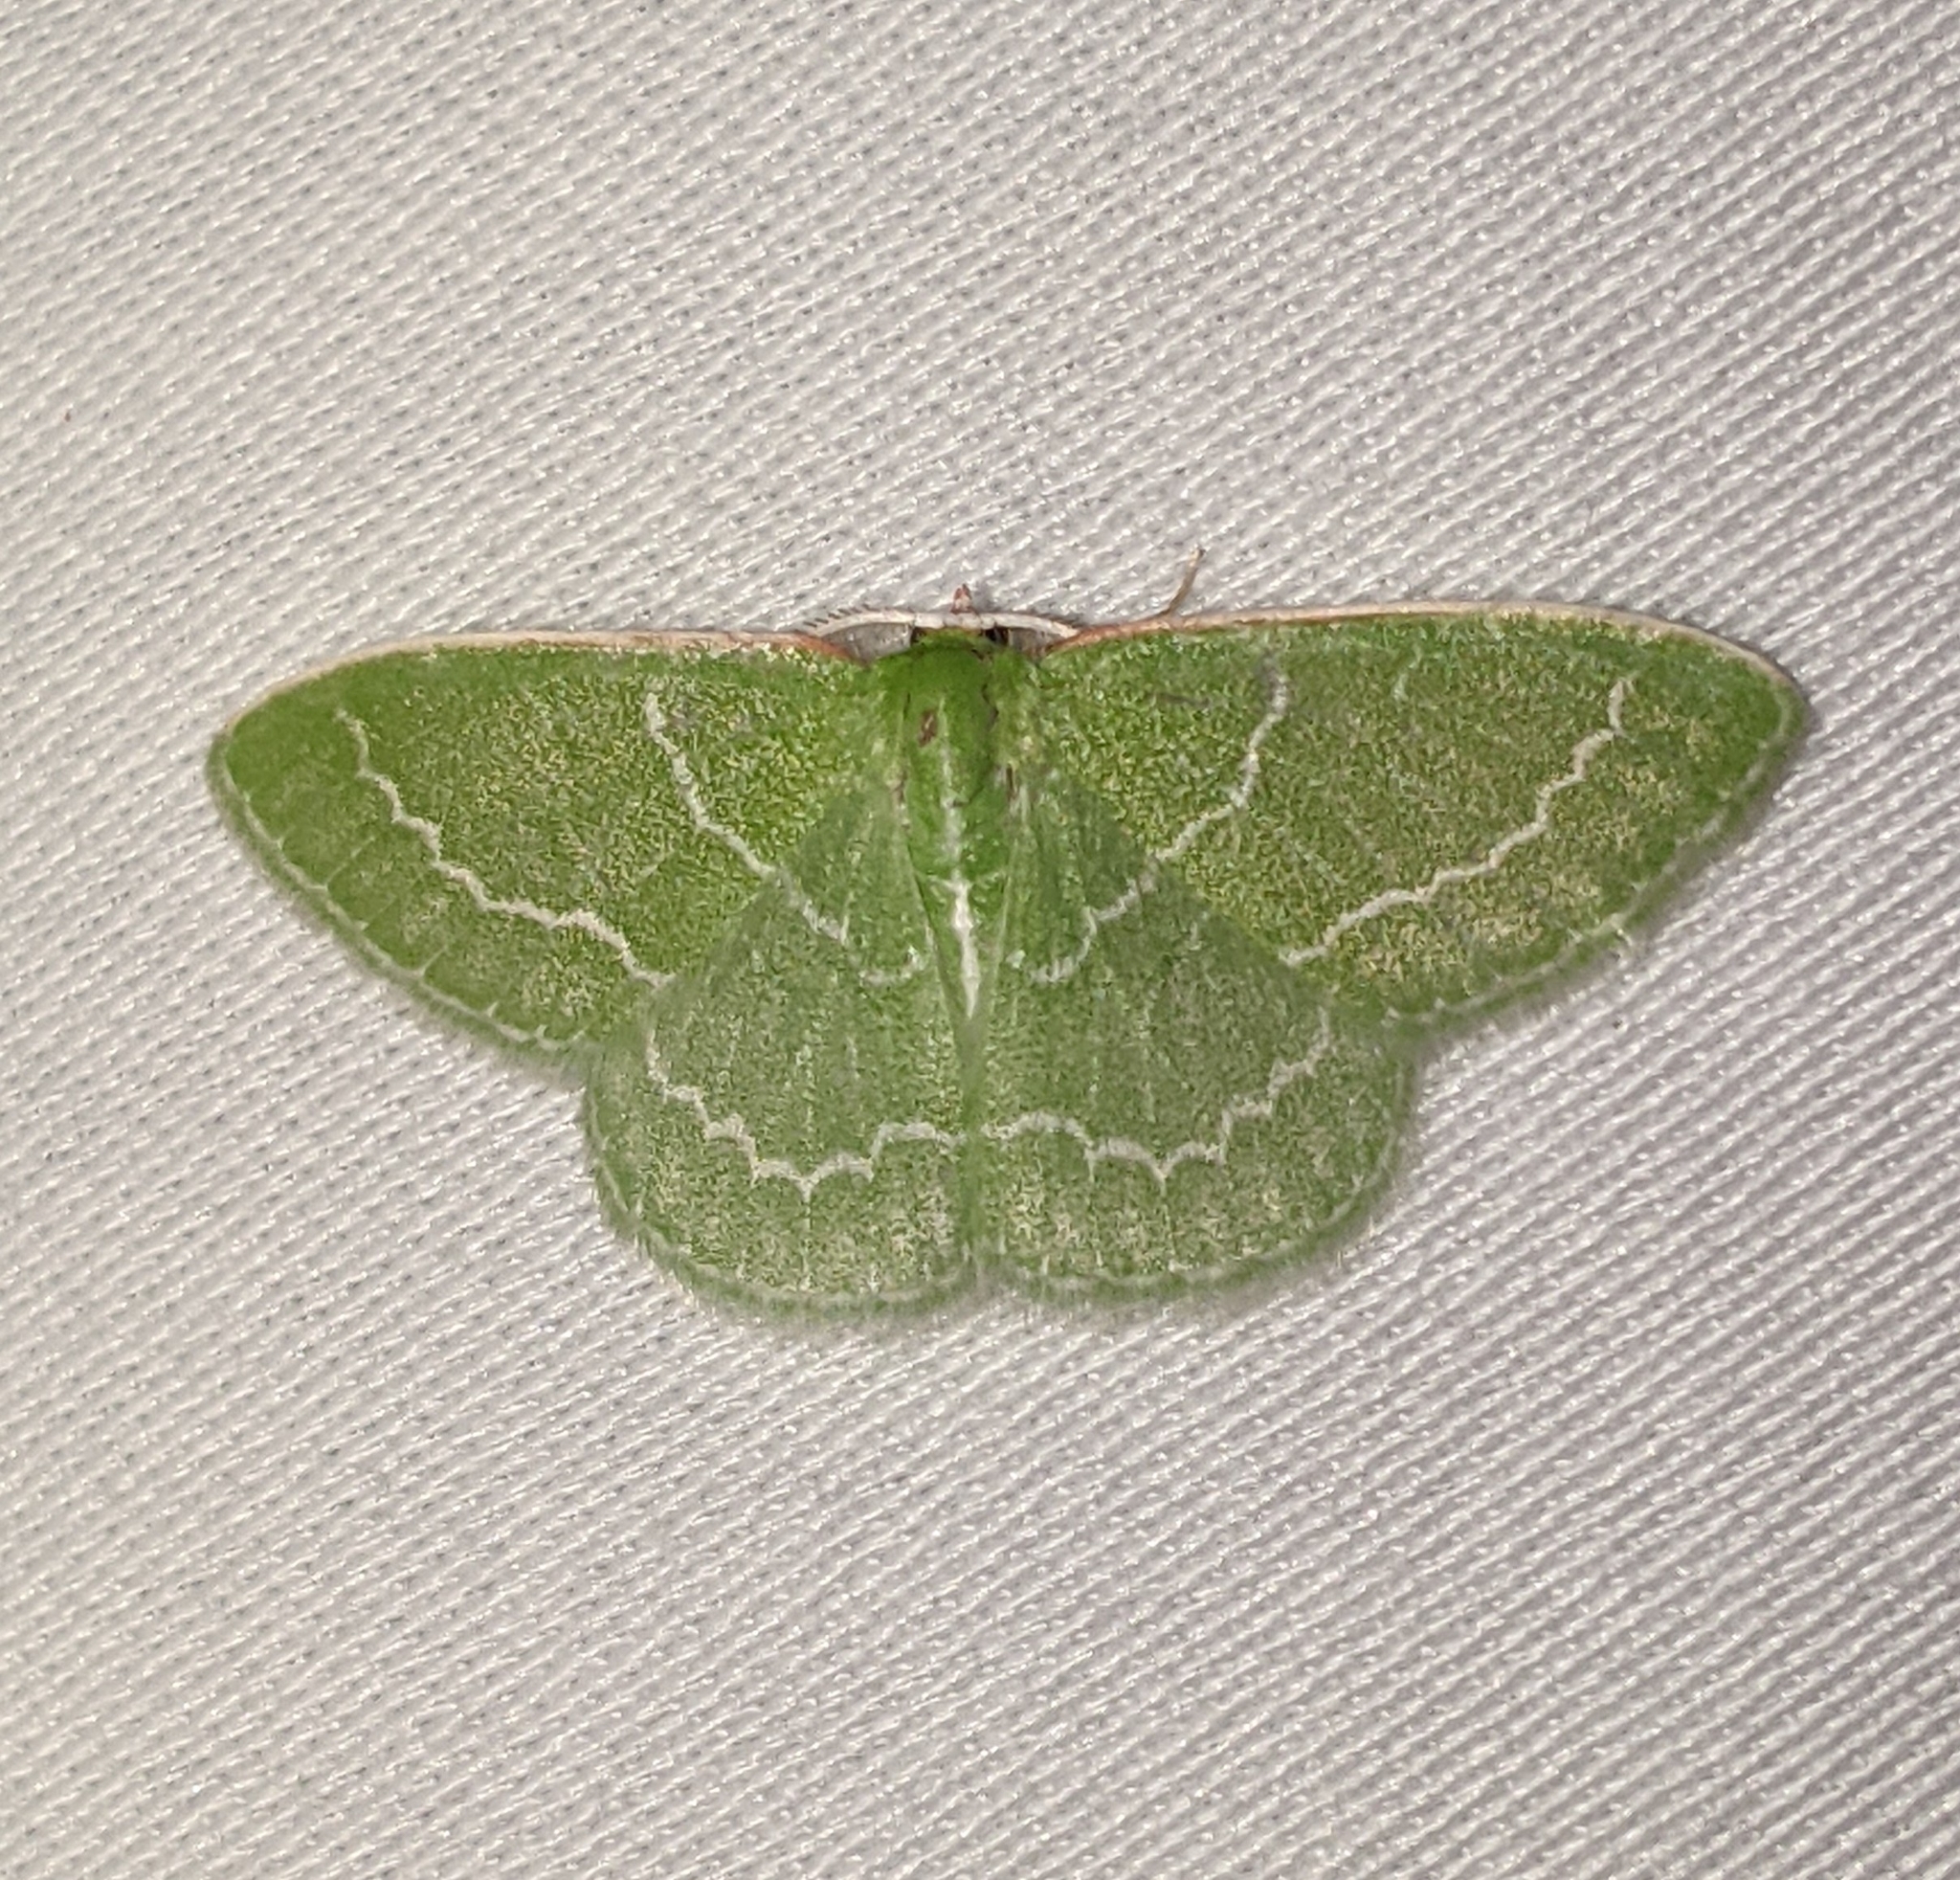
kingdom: Animalia
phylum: Arthropoda
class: Insecta
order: Lepidoptera
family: Geometridae
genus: Synchlora
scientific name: Synchlora aerata
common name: Wavy-lined emerald
